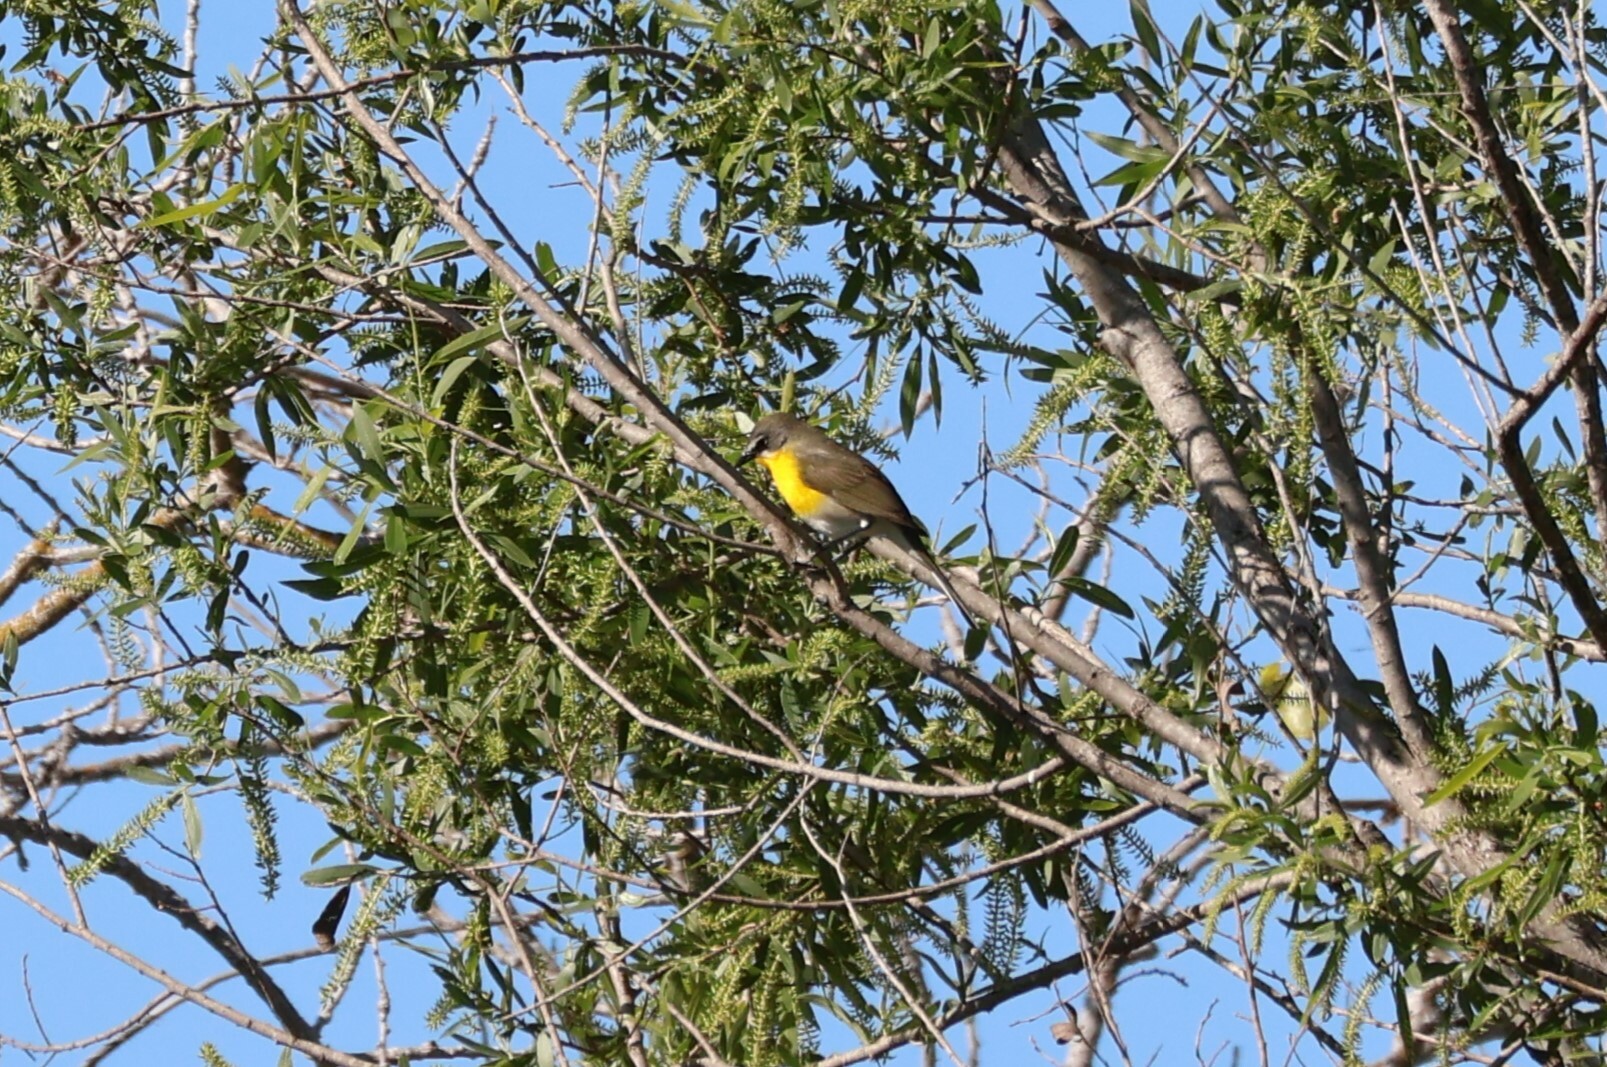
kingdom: Animalia
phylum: Chordata
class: Aves
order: Passeriformes
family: Parulidae
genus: Icteria
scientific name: Icteria virens
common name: Yellow-breasted chat
